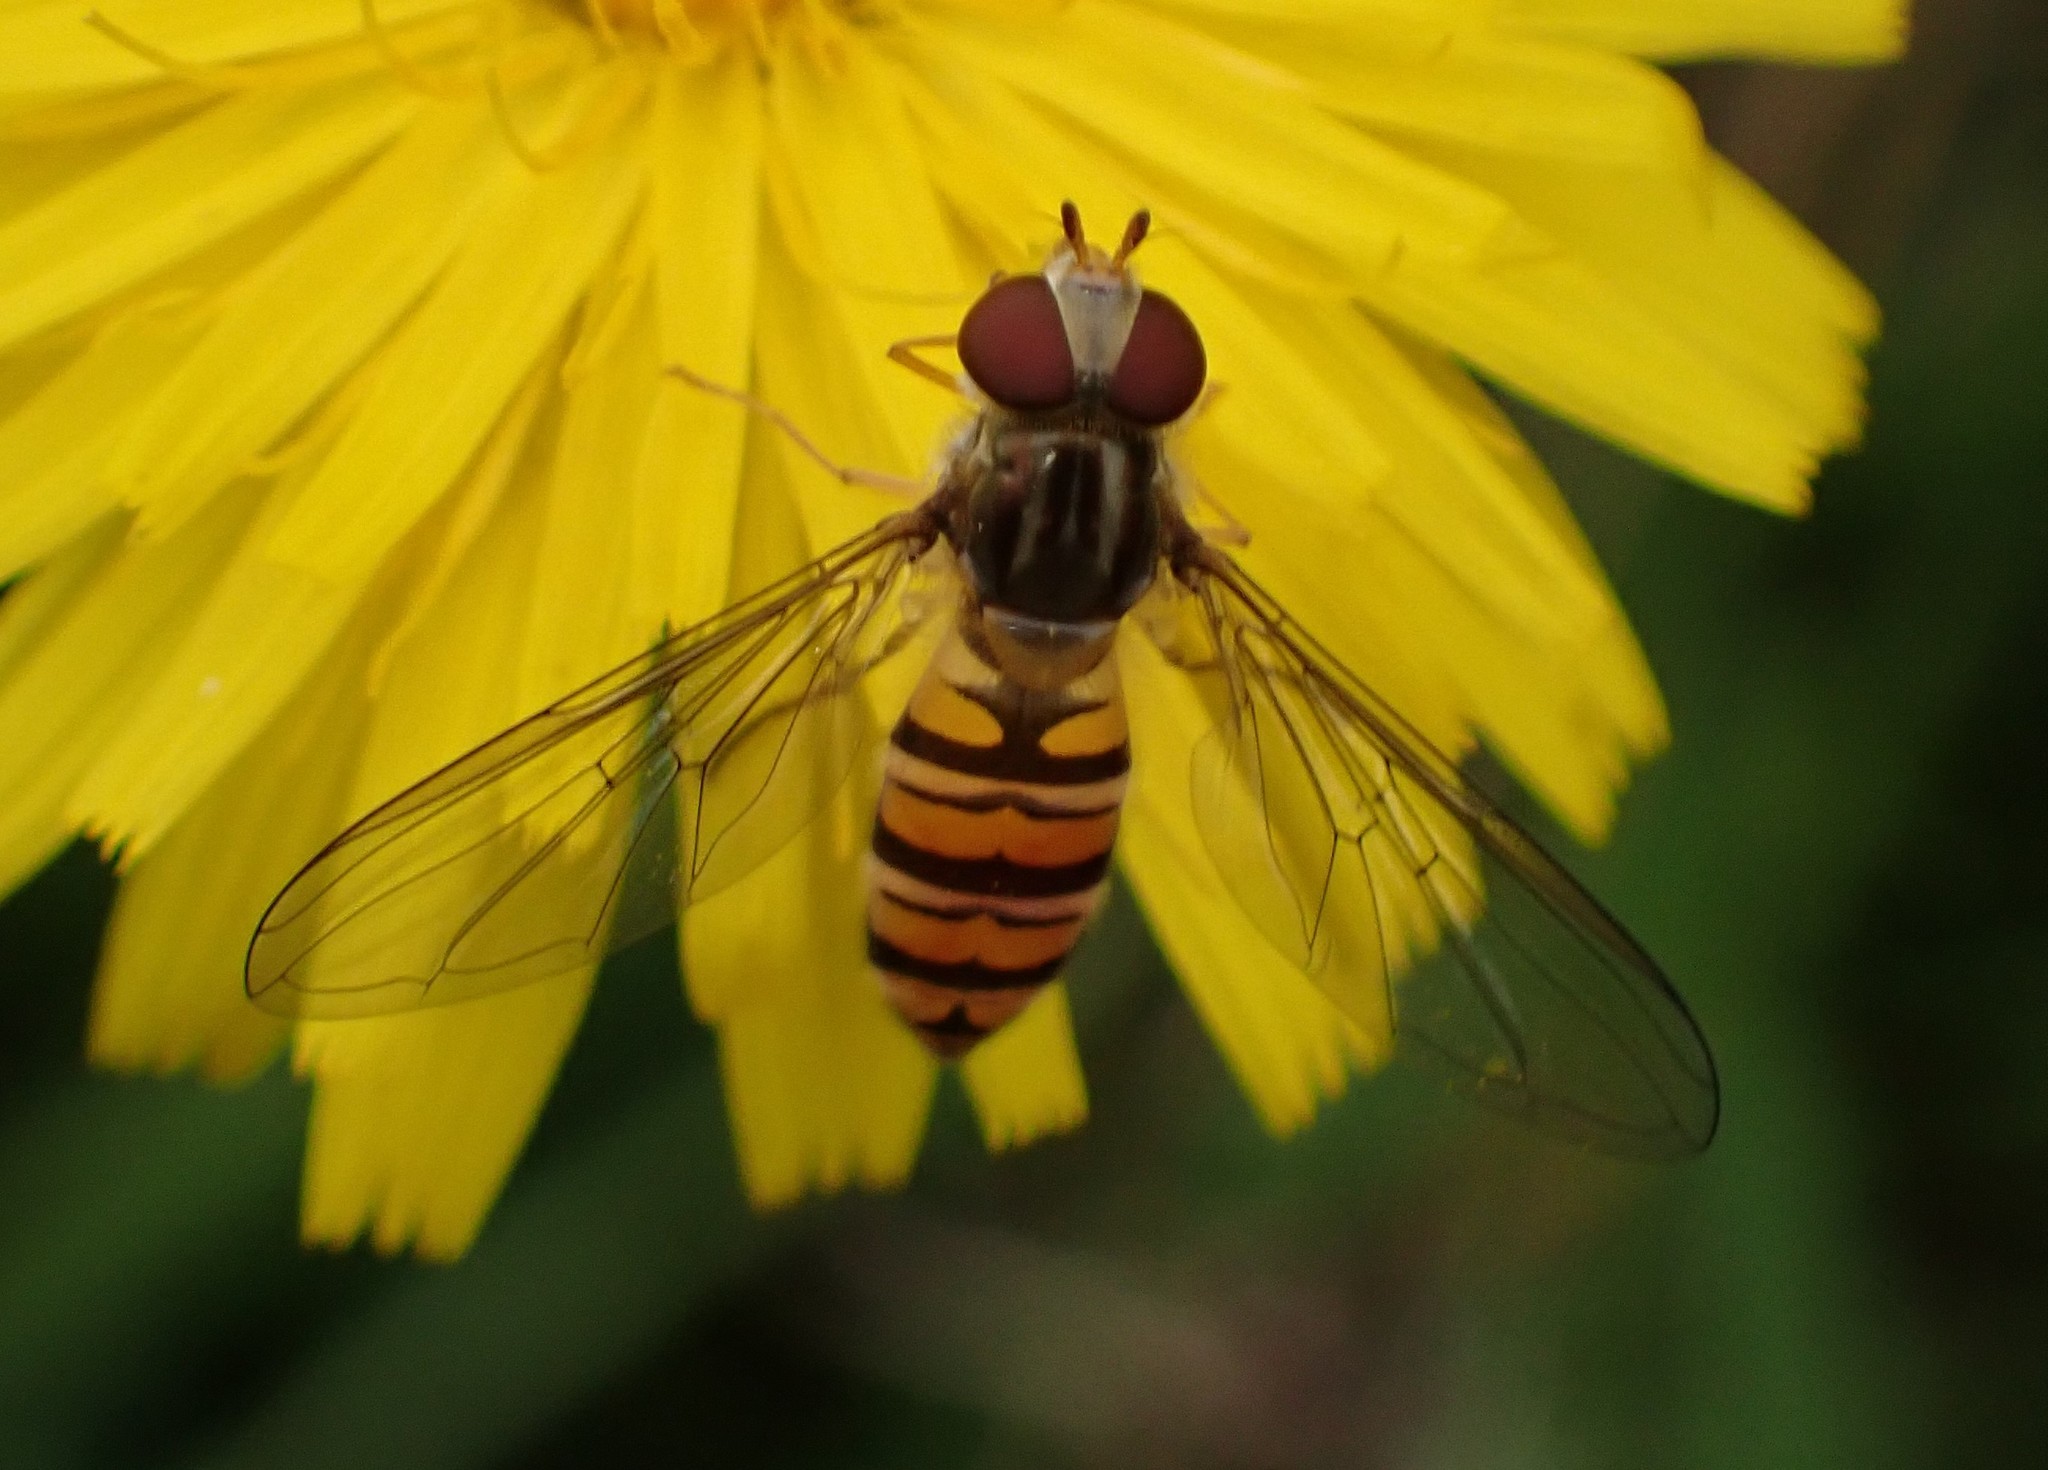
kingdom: Animalia
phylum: Arthropoda
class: Insecta
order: Diptera
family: Syrphidae
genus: Episyrphus
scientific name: Episyrphus balteatus
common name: Marmalade hoverfly
